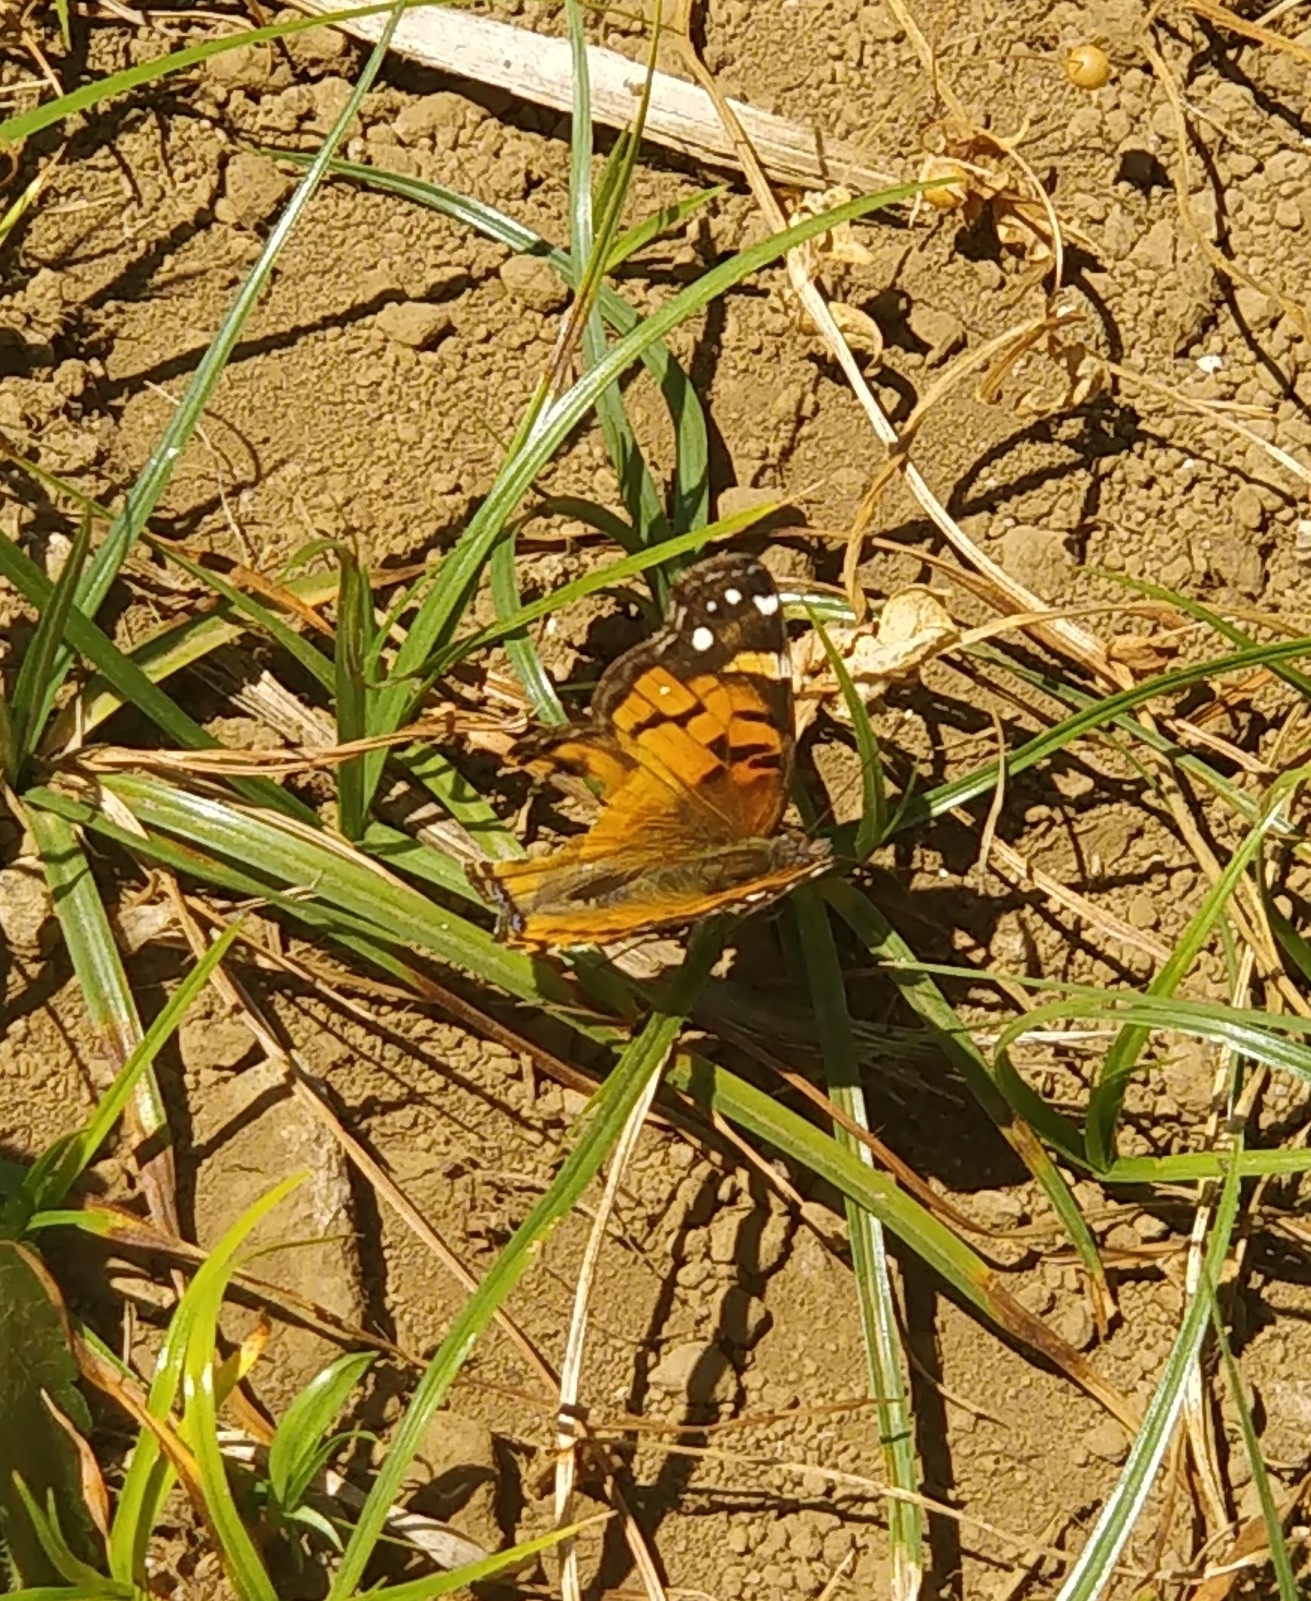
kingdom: Animalia
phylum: Arthropoda
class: Insecta
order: Lepidoptera
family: Nymphalidae
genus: Vanessa
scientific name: Vanessa virginiensis
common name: American lady
